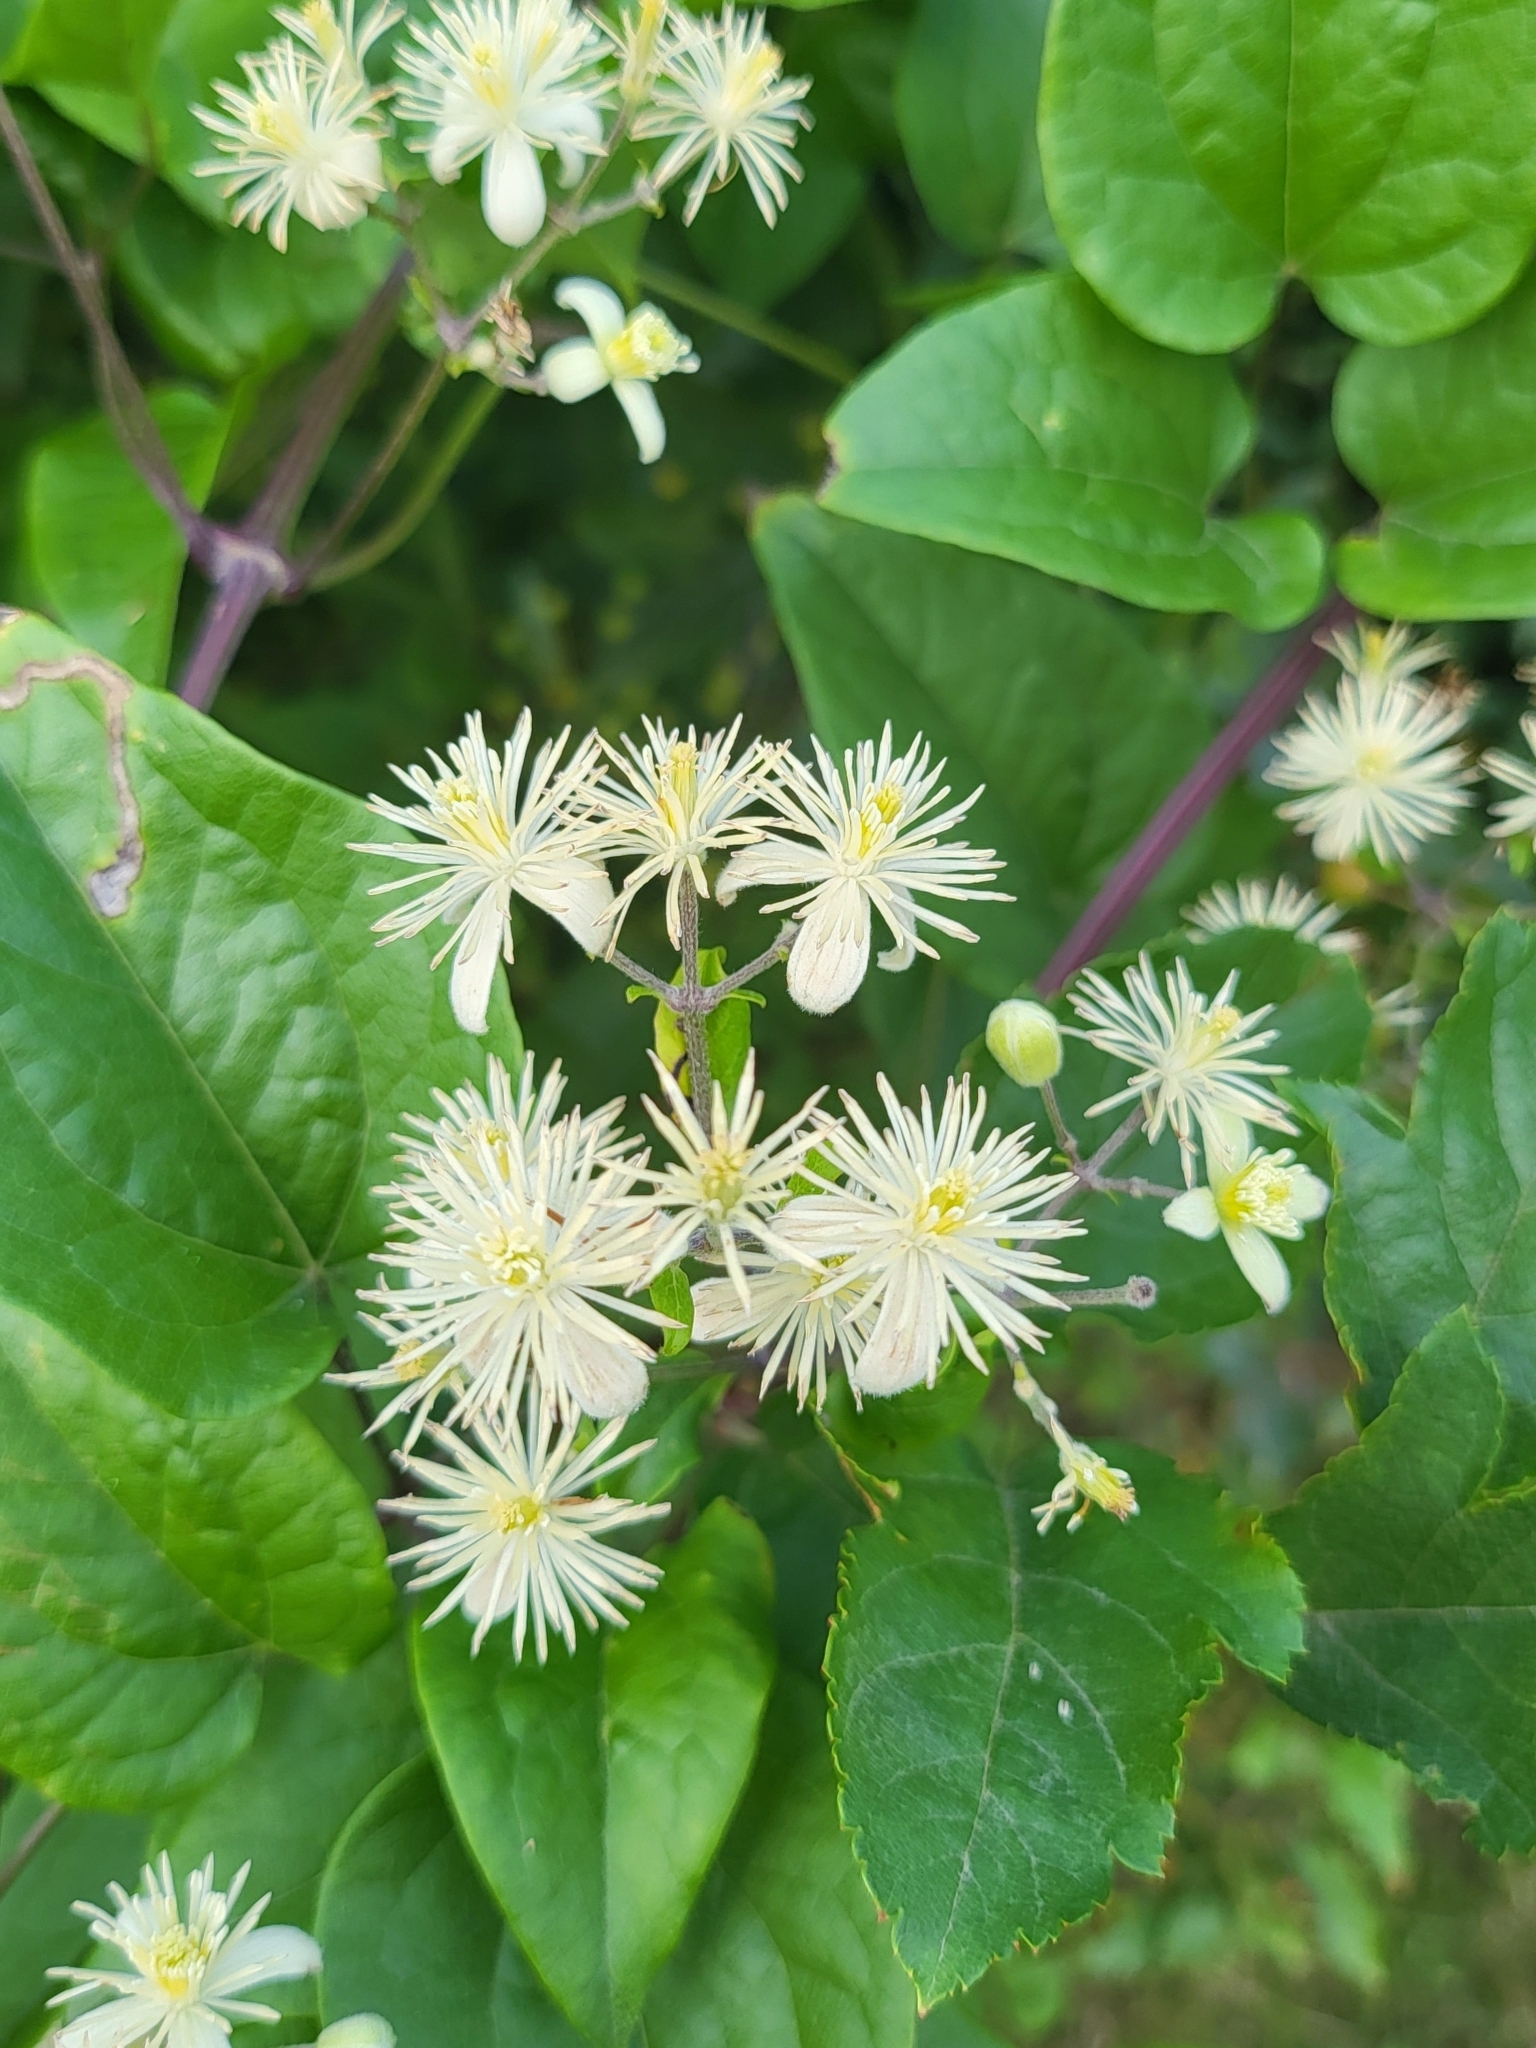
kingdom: Plantae
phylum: Tracheophyta
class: Magnoliopsida
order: Ranunculales
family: Ranunculaceae
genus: Clematis
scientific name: Clematis vitalba
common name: Evergreen clematis
